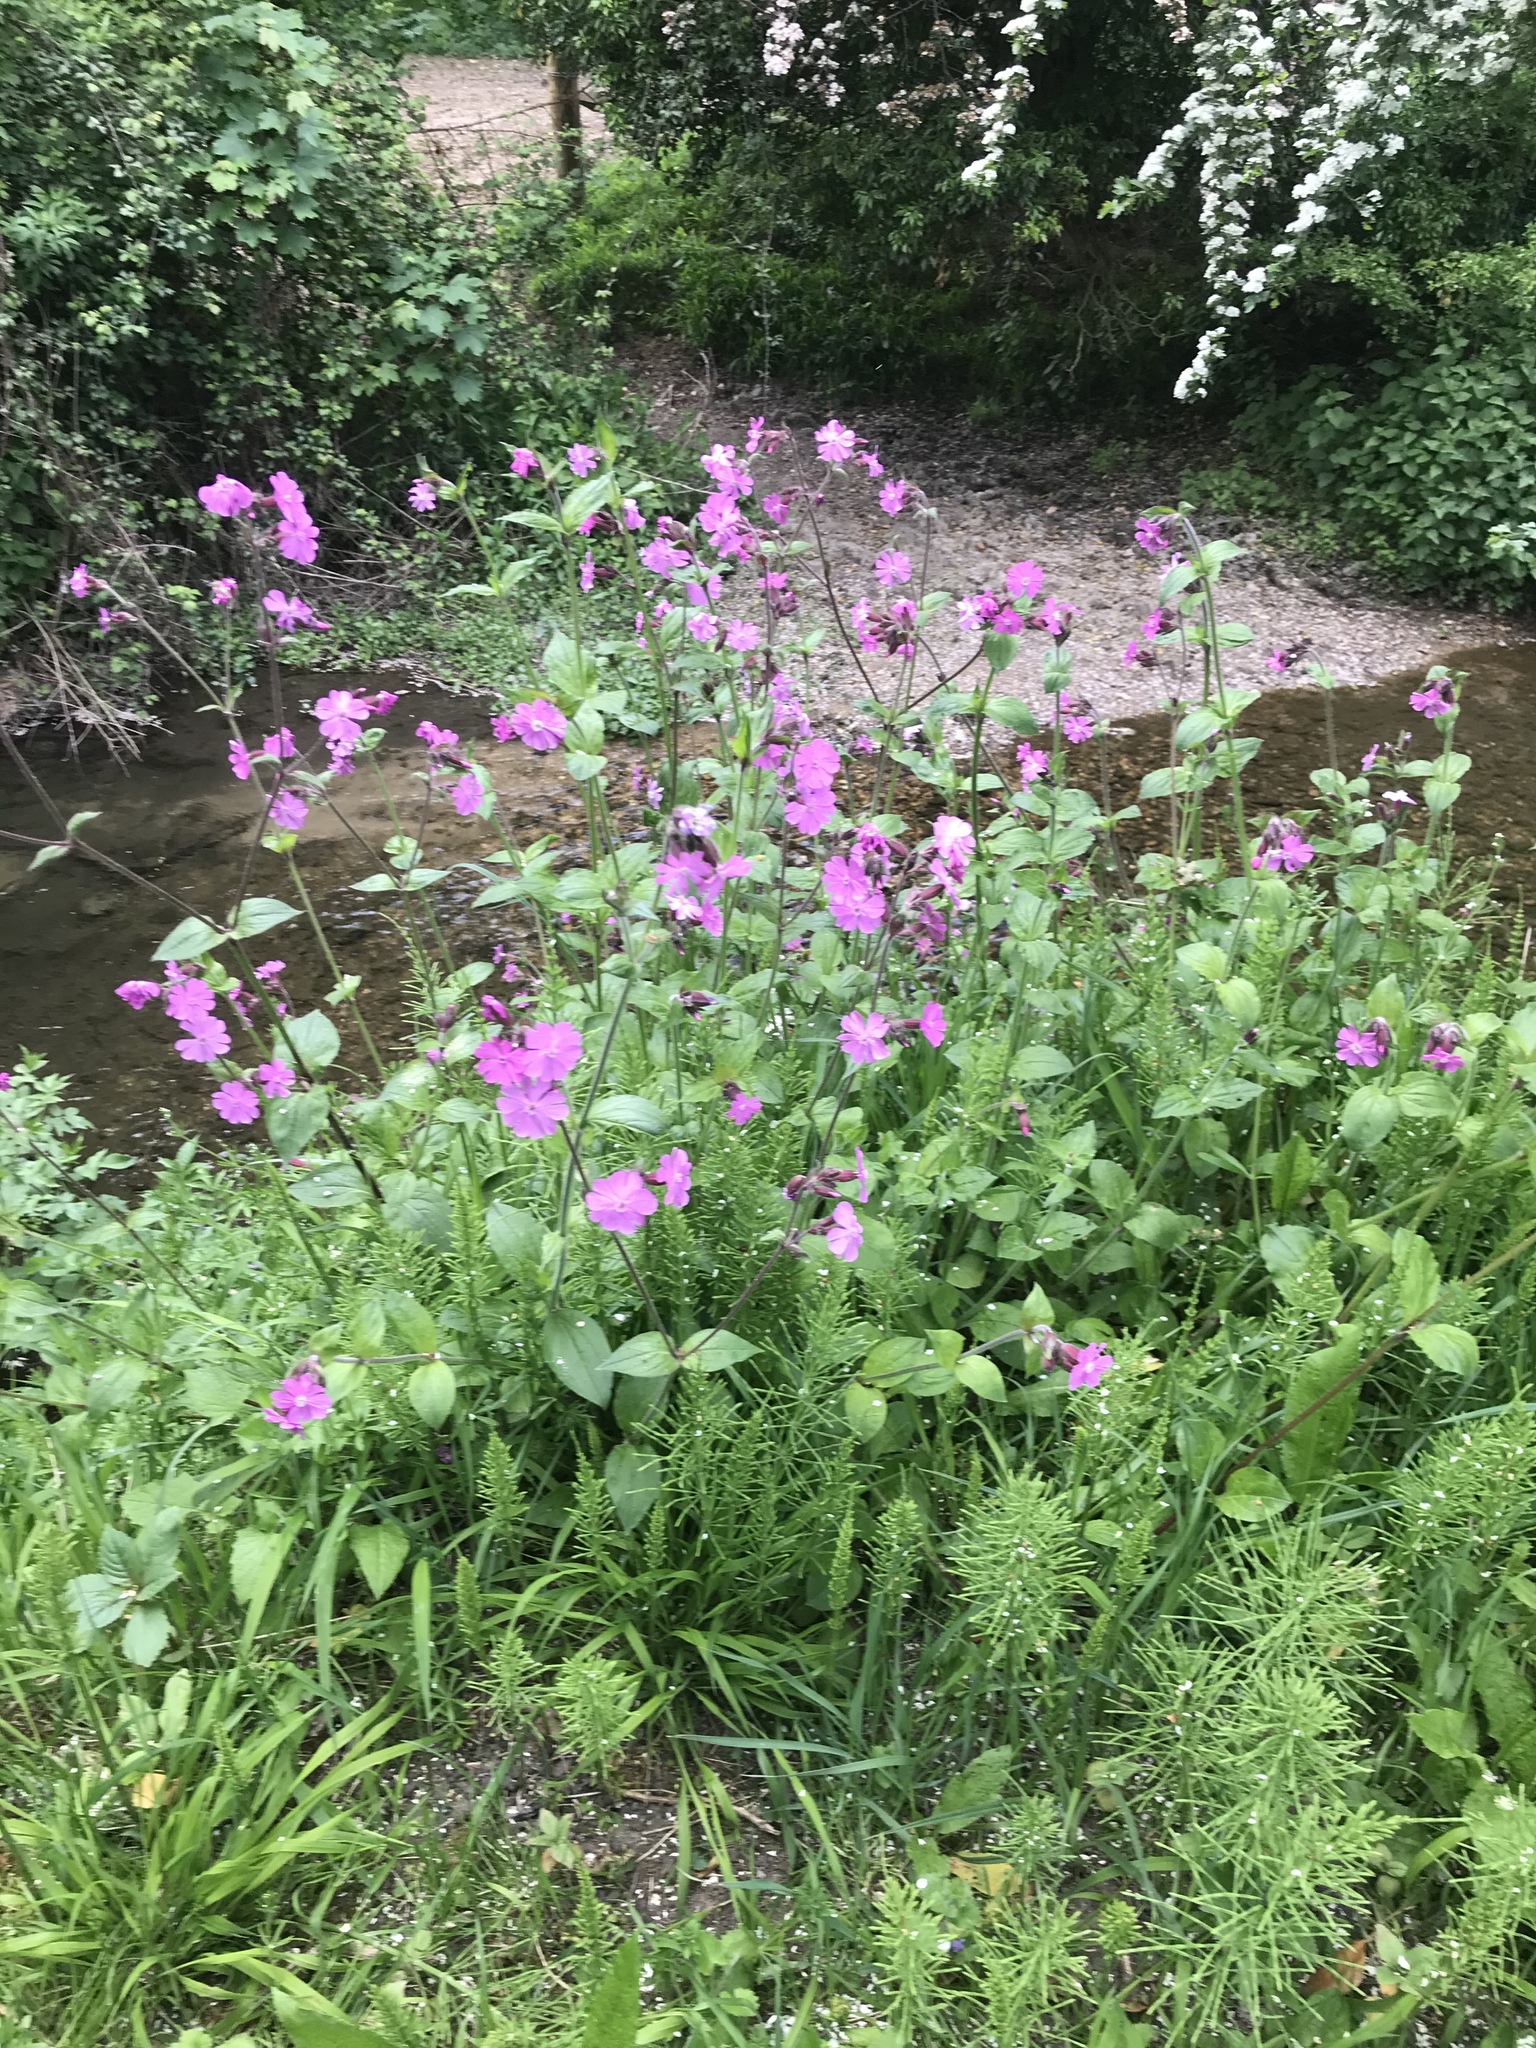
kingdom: Plantae
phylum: Tracheophyta
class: Magnoliopsida
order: Caryophyllales
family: Caryophyllaceae
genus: Silene
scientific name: Silene dioica
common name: Red campion
